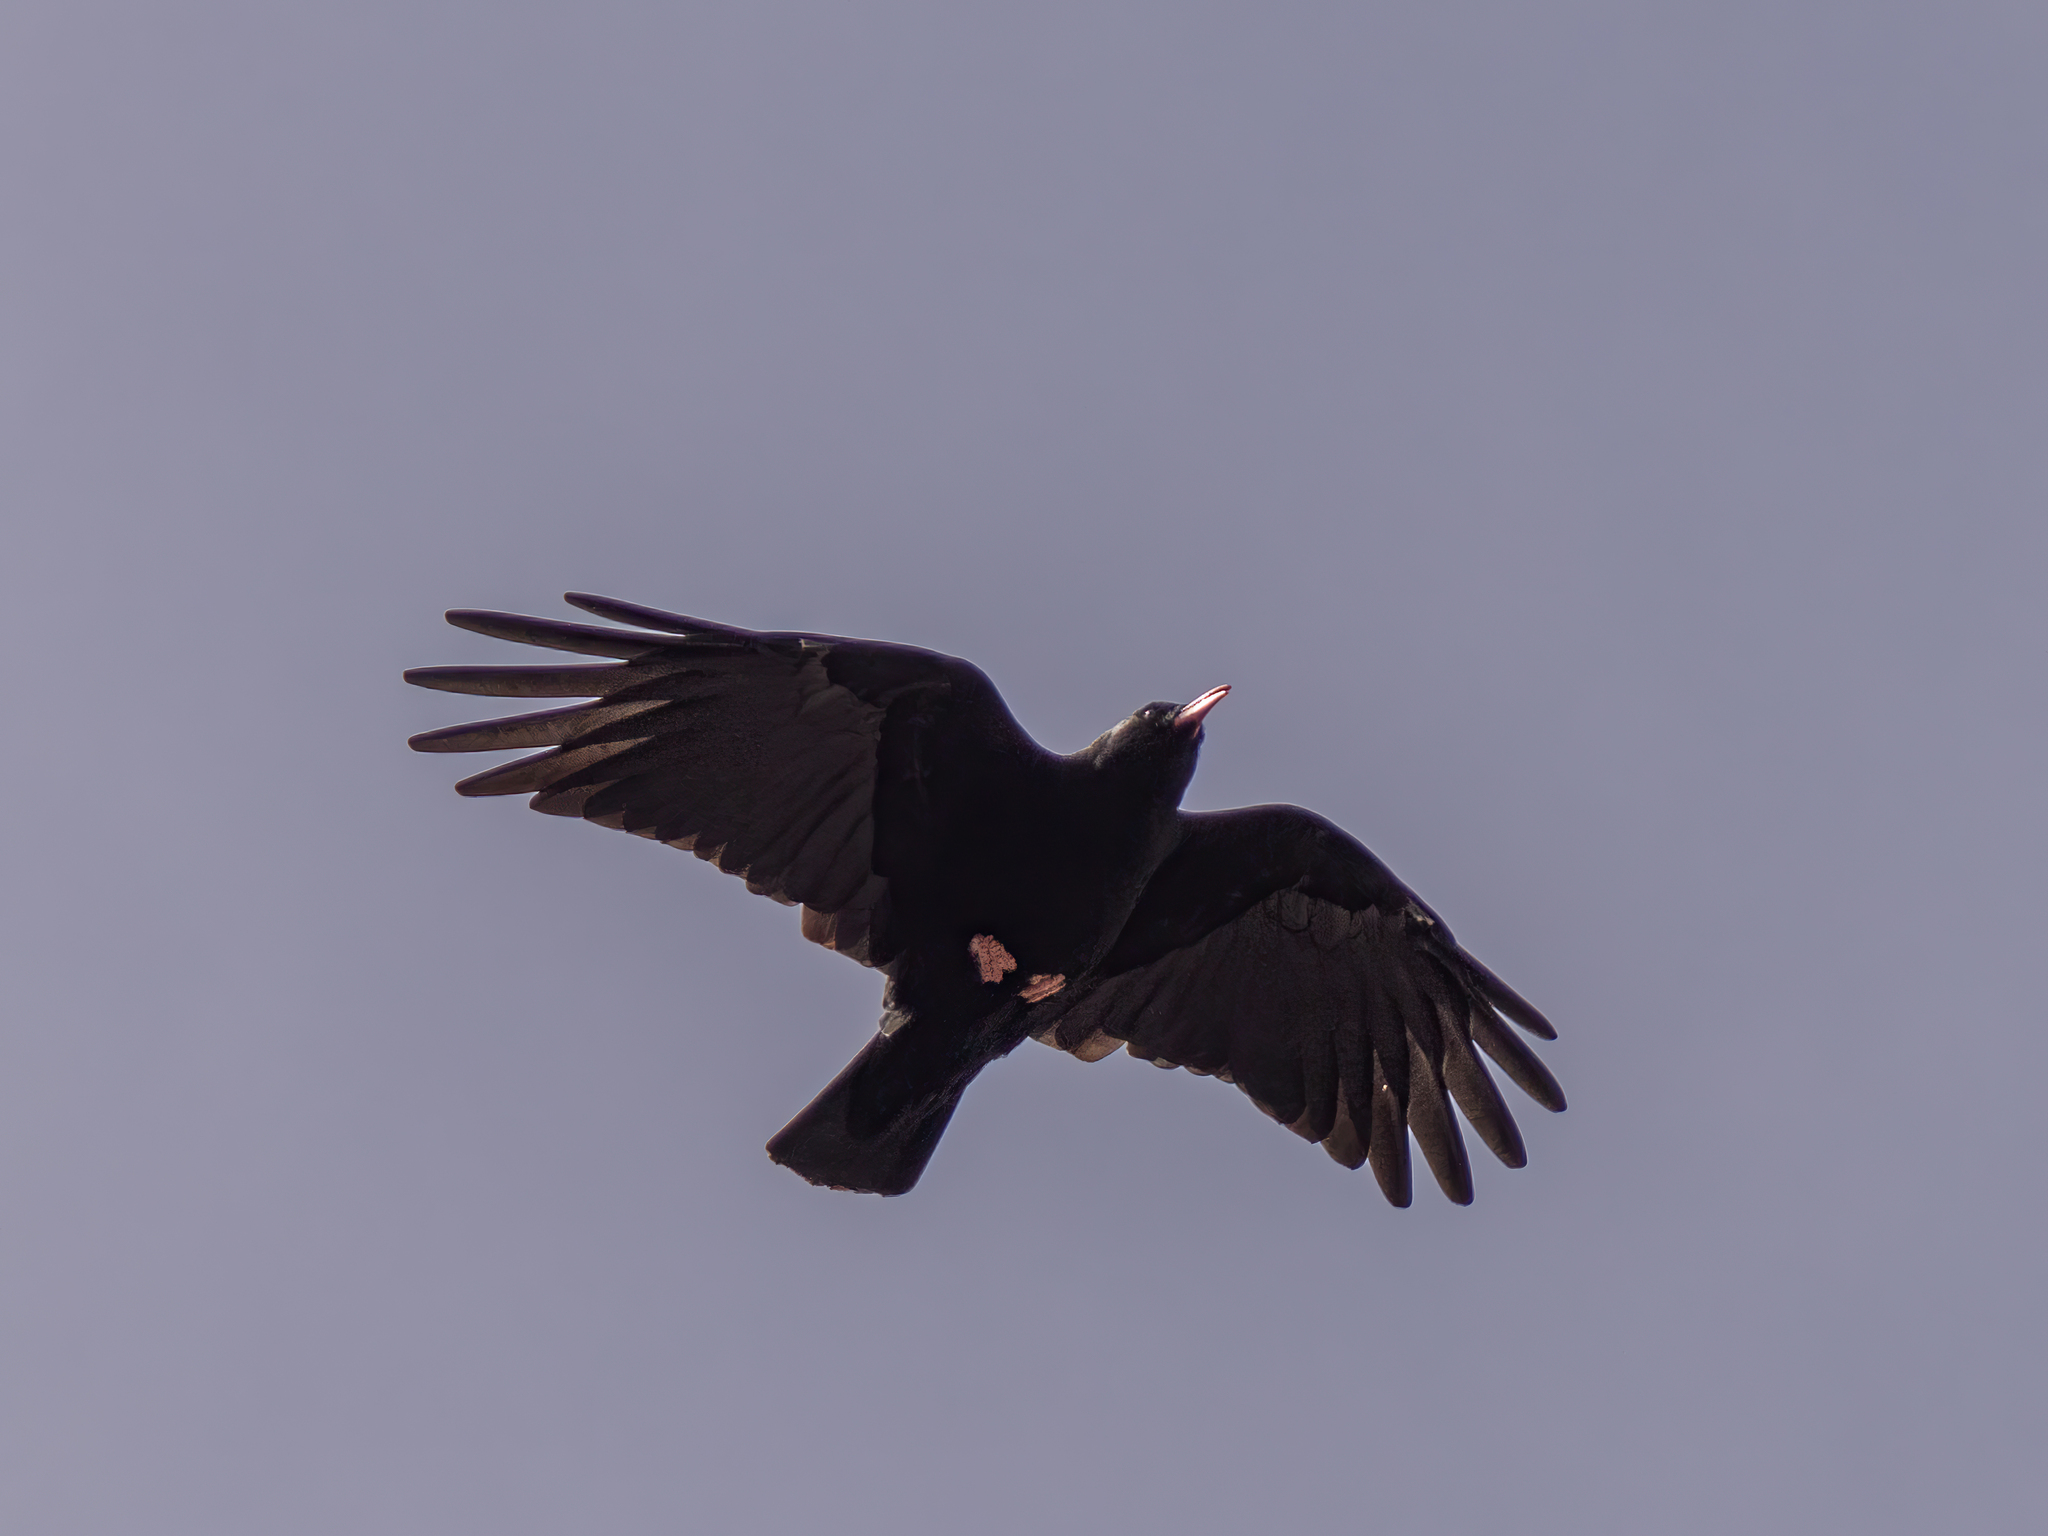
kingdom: Animalia
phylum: Chordata
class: Aves
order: Passeriformes
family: Corvidae
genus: Pyrrhocorax
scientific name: Pyrrhocorax pyrrhocorax
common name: Red-billed chough
